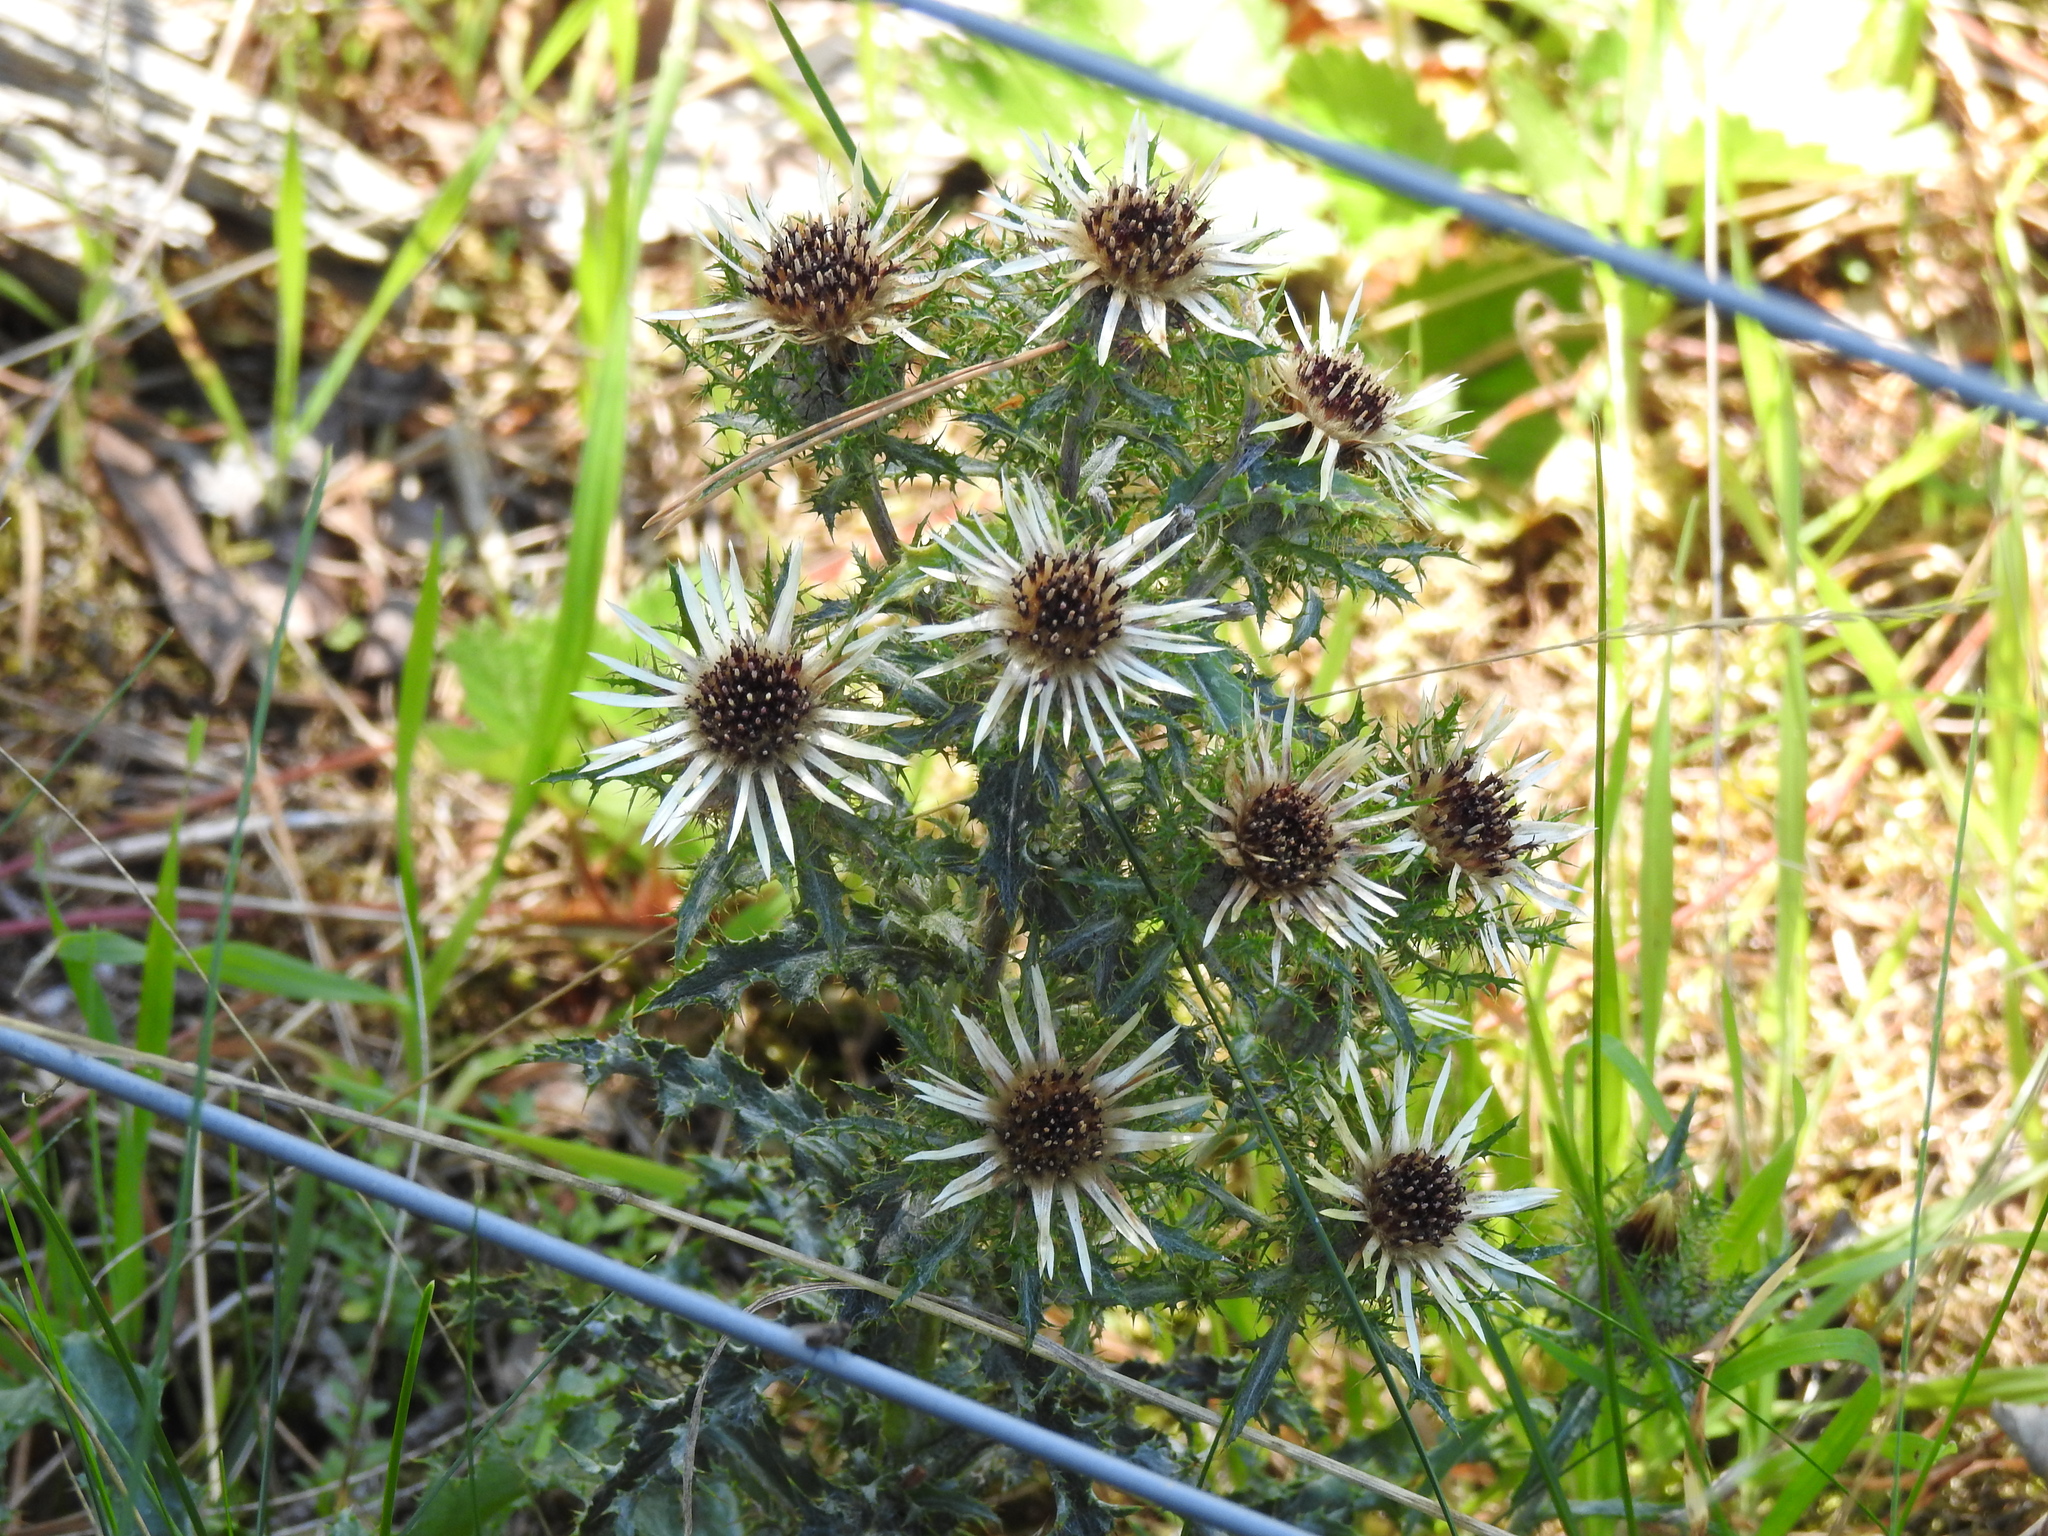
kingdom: Plantae
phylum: Tracheophyta
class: Magnoliopsida
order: Asterales
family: Asteraceae
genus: Carlina
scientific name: Carlina vulgaris
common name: Carline thistle
